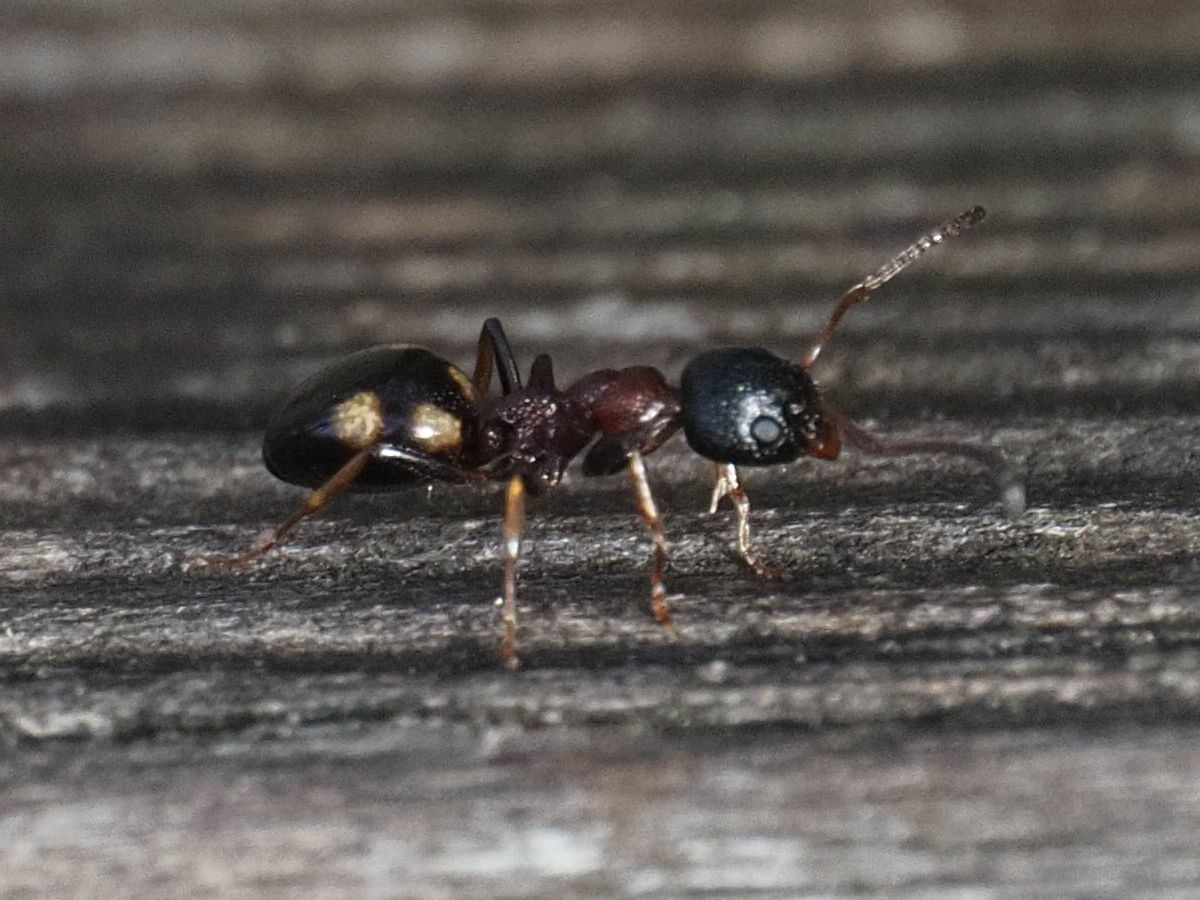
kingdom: Animalia
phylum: Arthropoda
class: Insecta
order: Hymenoptera
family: Formicidae
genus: Dolichoderus
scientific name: Dolichoderus quadripunctatus
